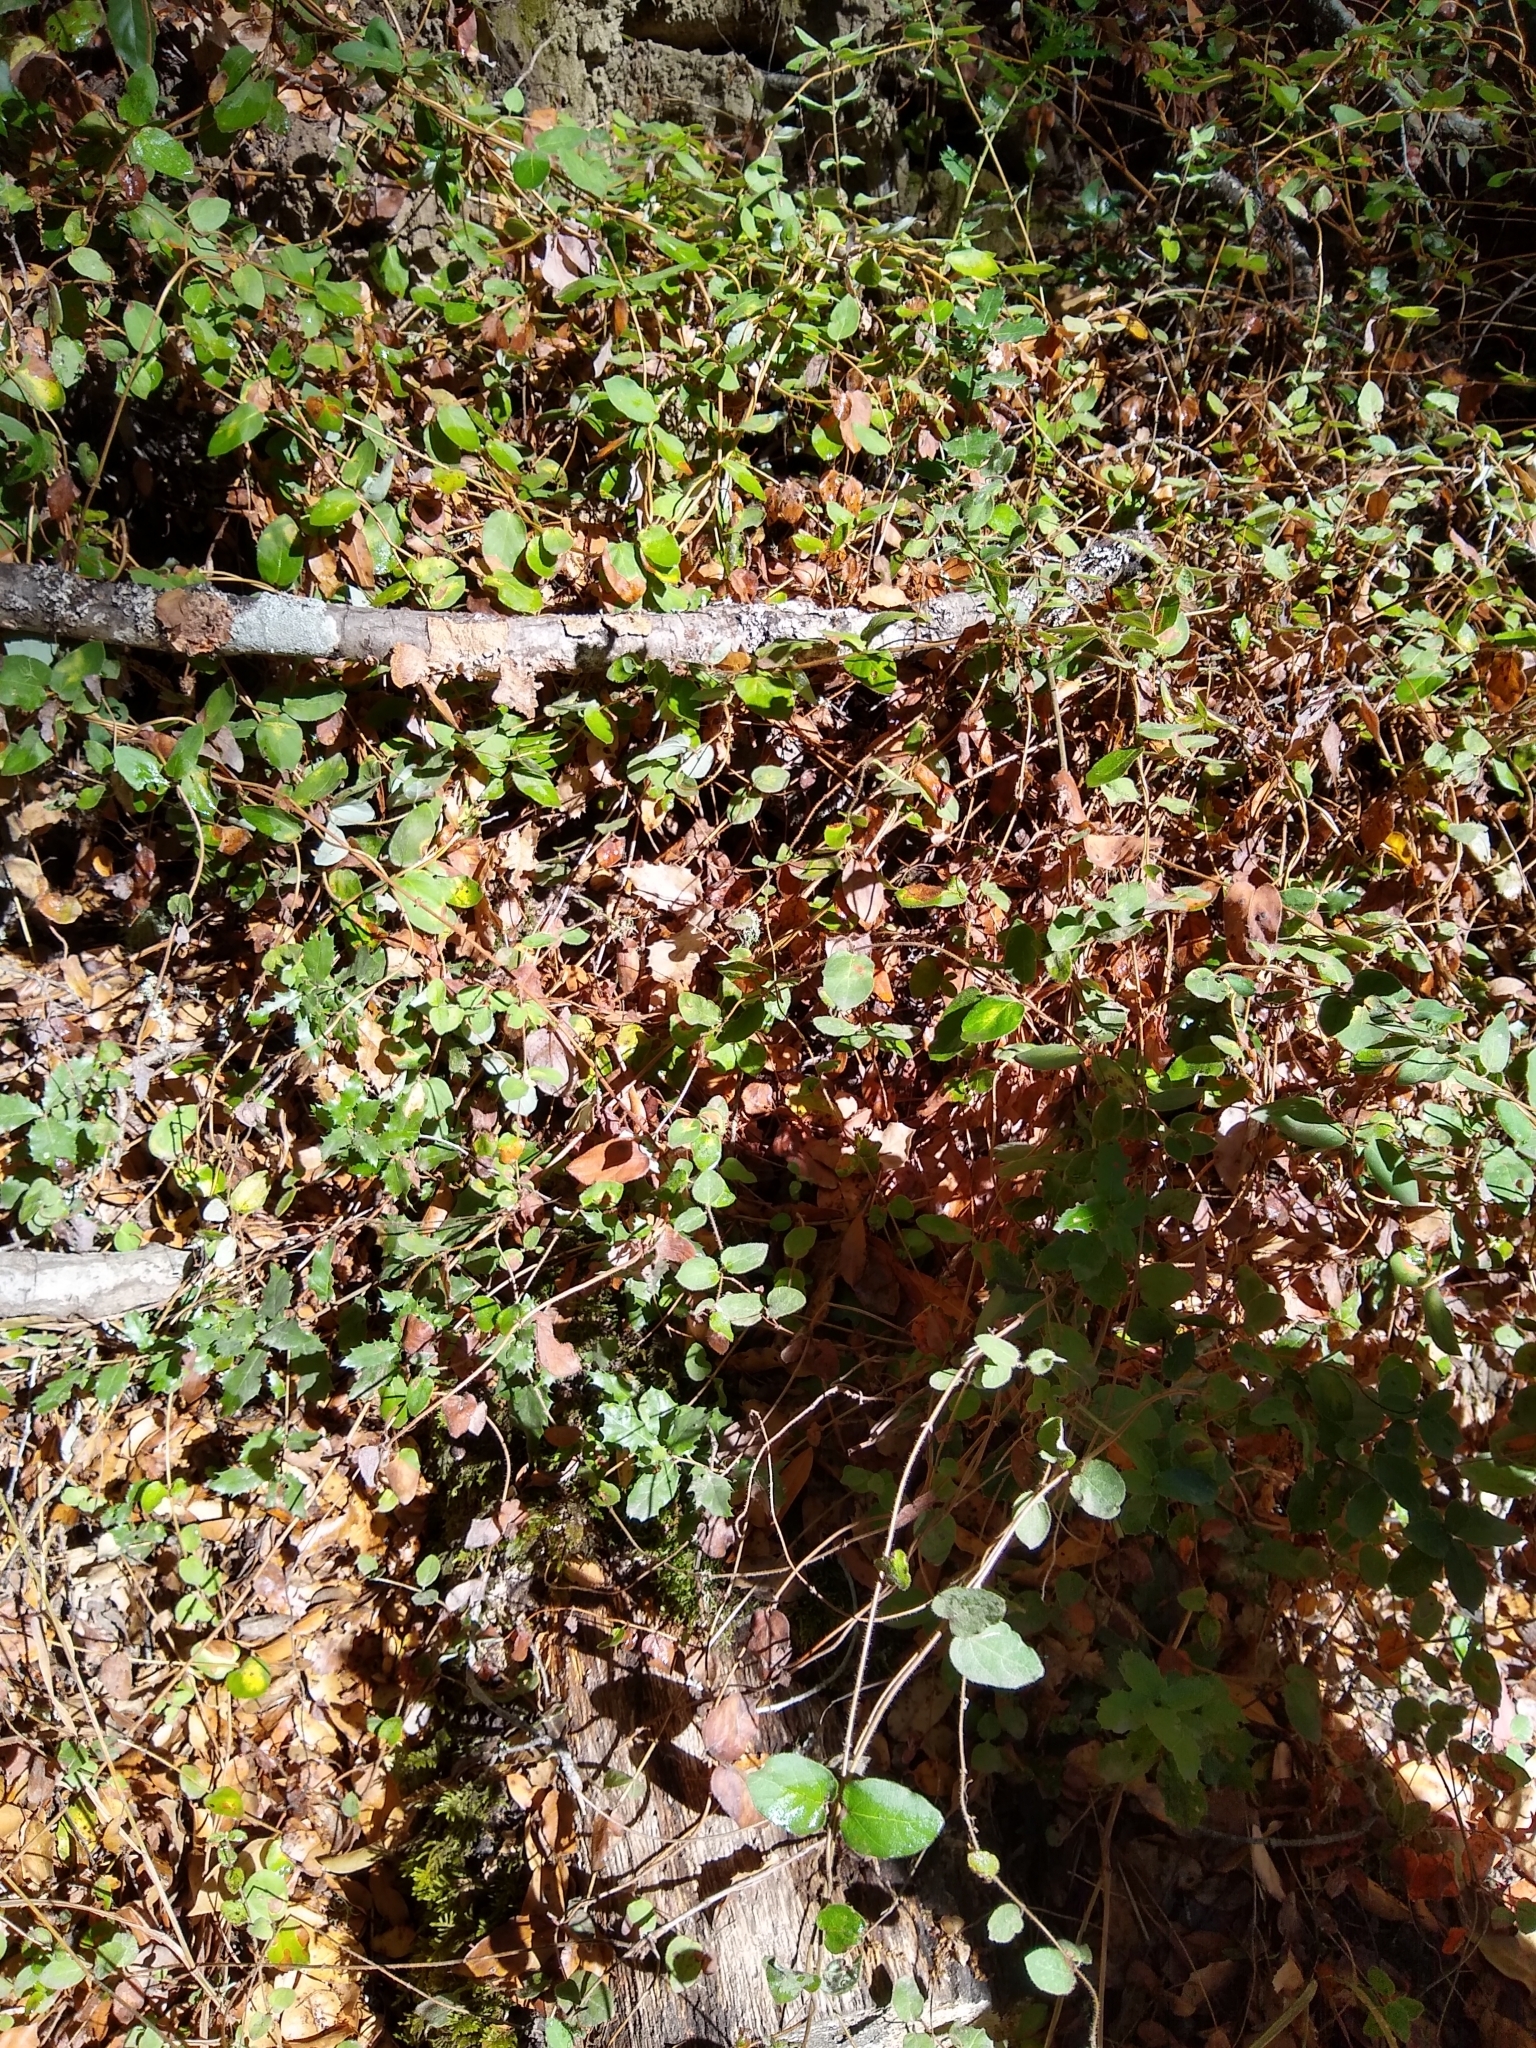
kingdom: Plantae
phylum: Tracheophyta
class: Magnoliopsida
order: Dipsacales
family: Caprifoliaceae
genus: Lonicera
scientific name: Lonicera hispidula
